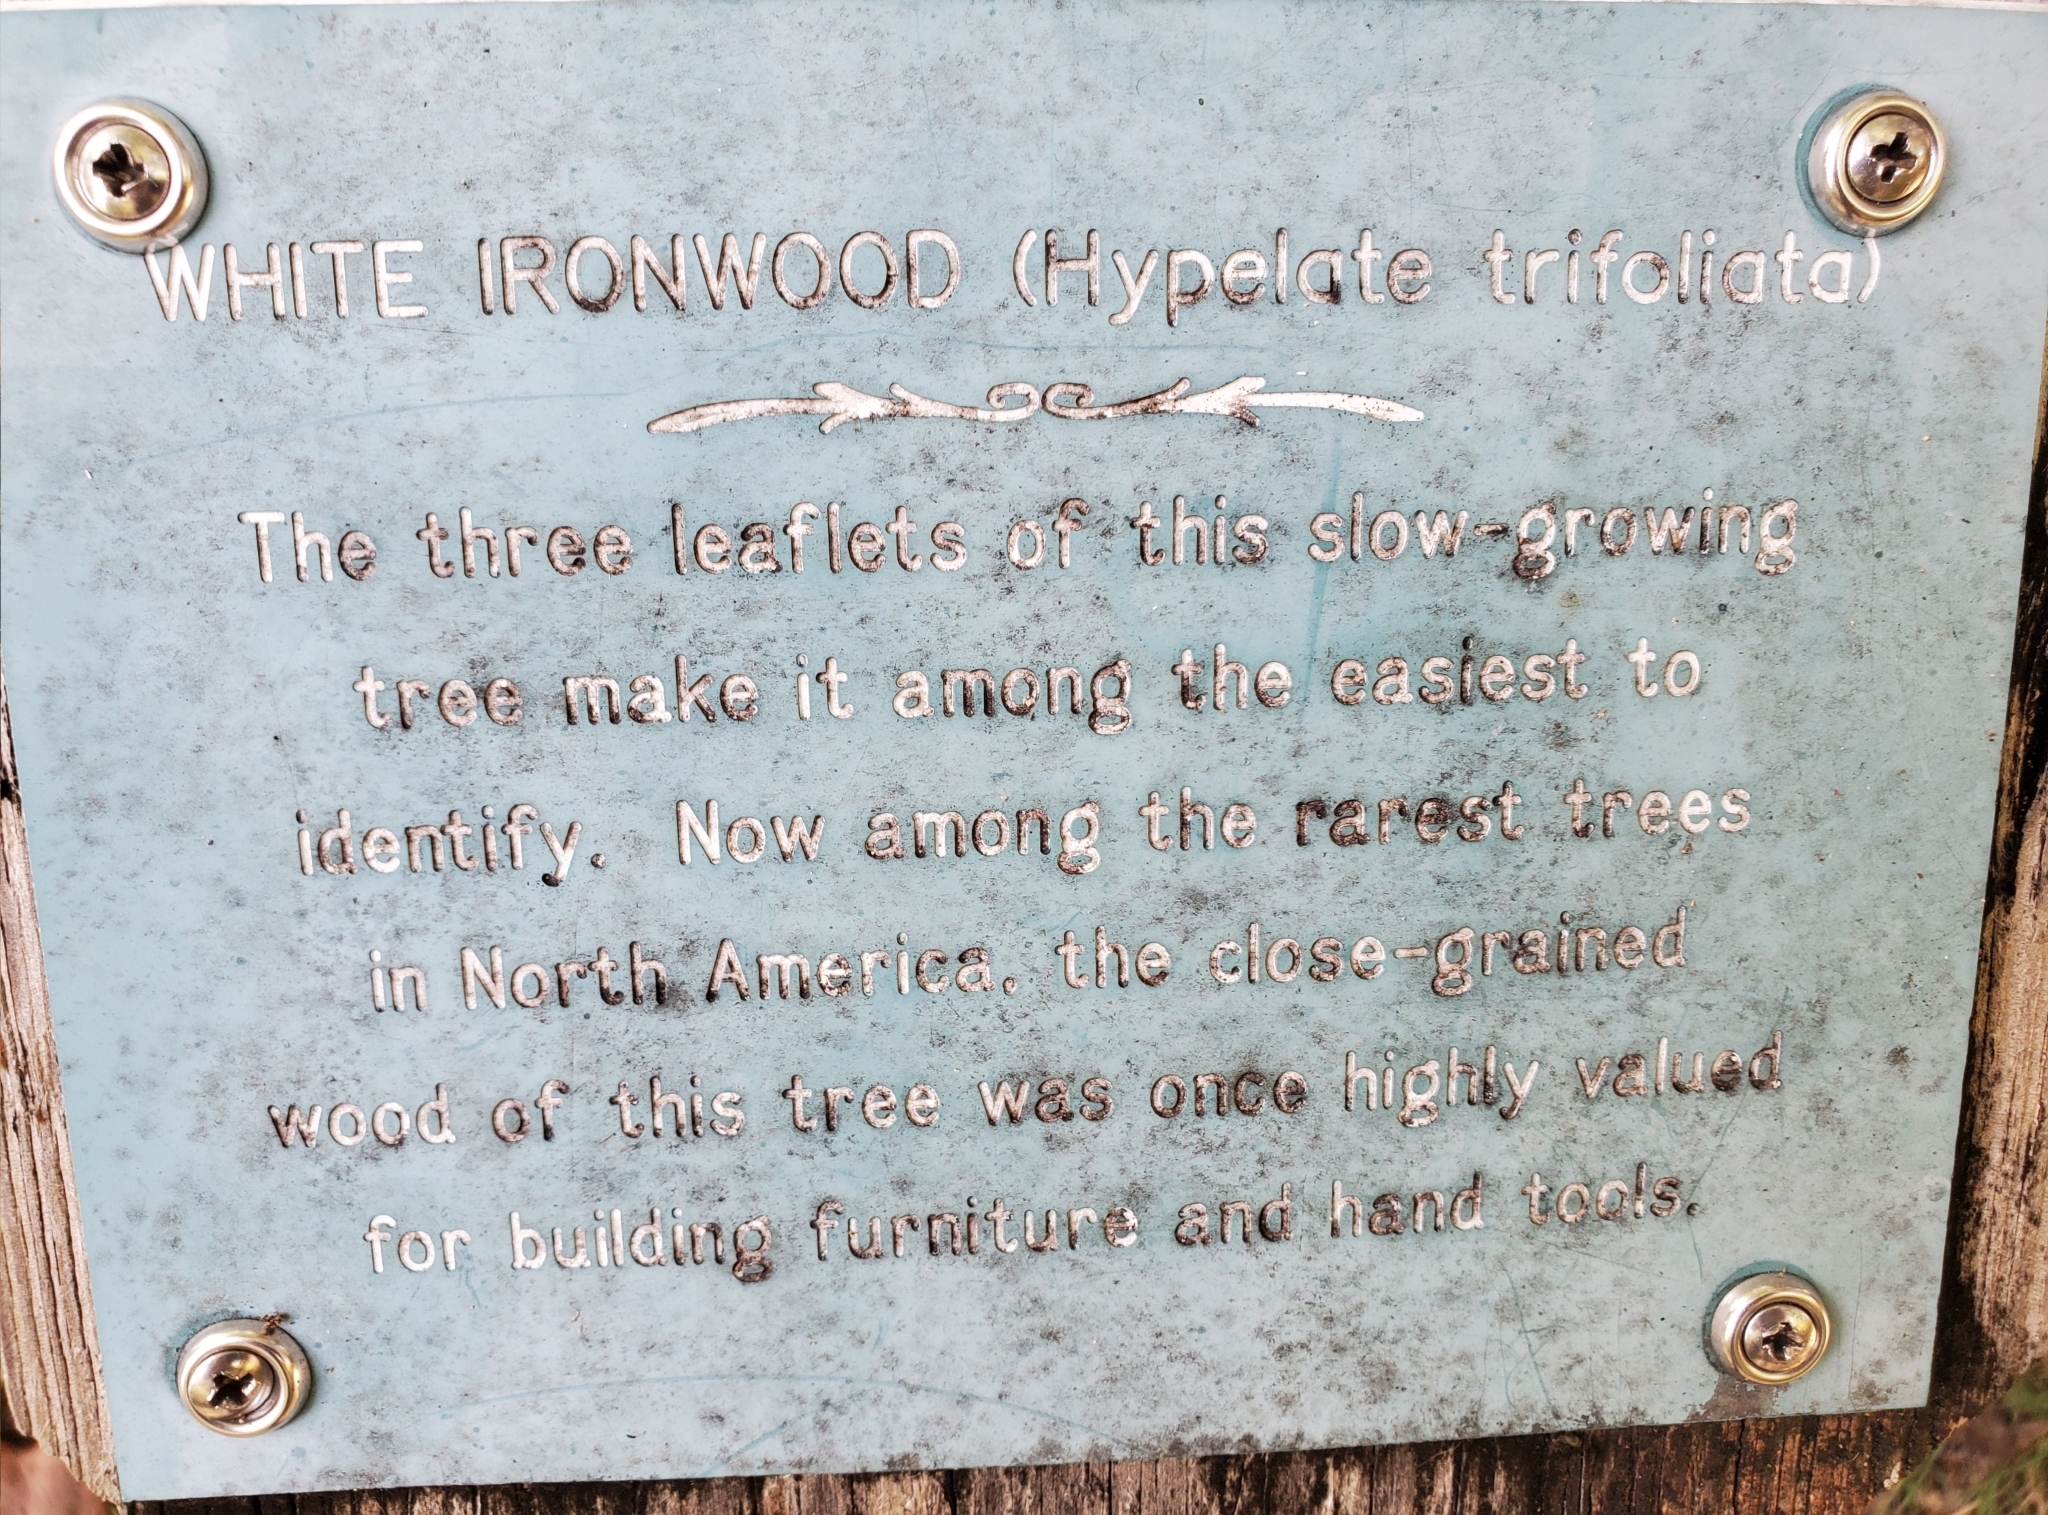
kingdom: Plantae
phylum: Tracheophyta
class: Magnoliopsida
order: Sapindales
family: Sapindaceae
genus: Hypelate
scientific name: Hypelate trifoliata
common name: Inkwood
